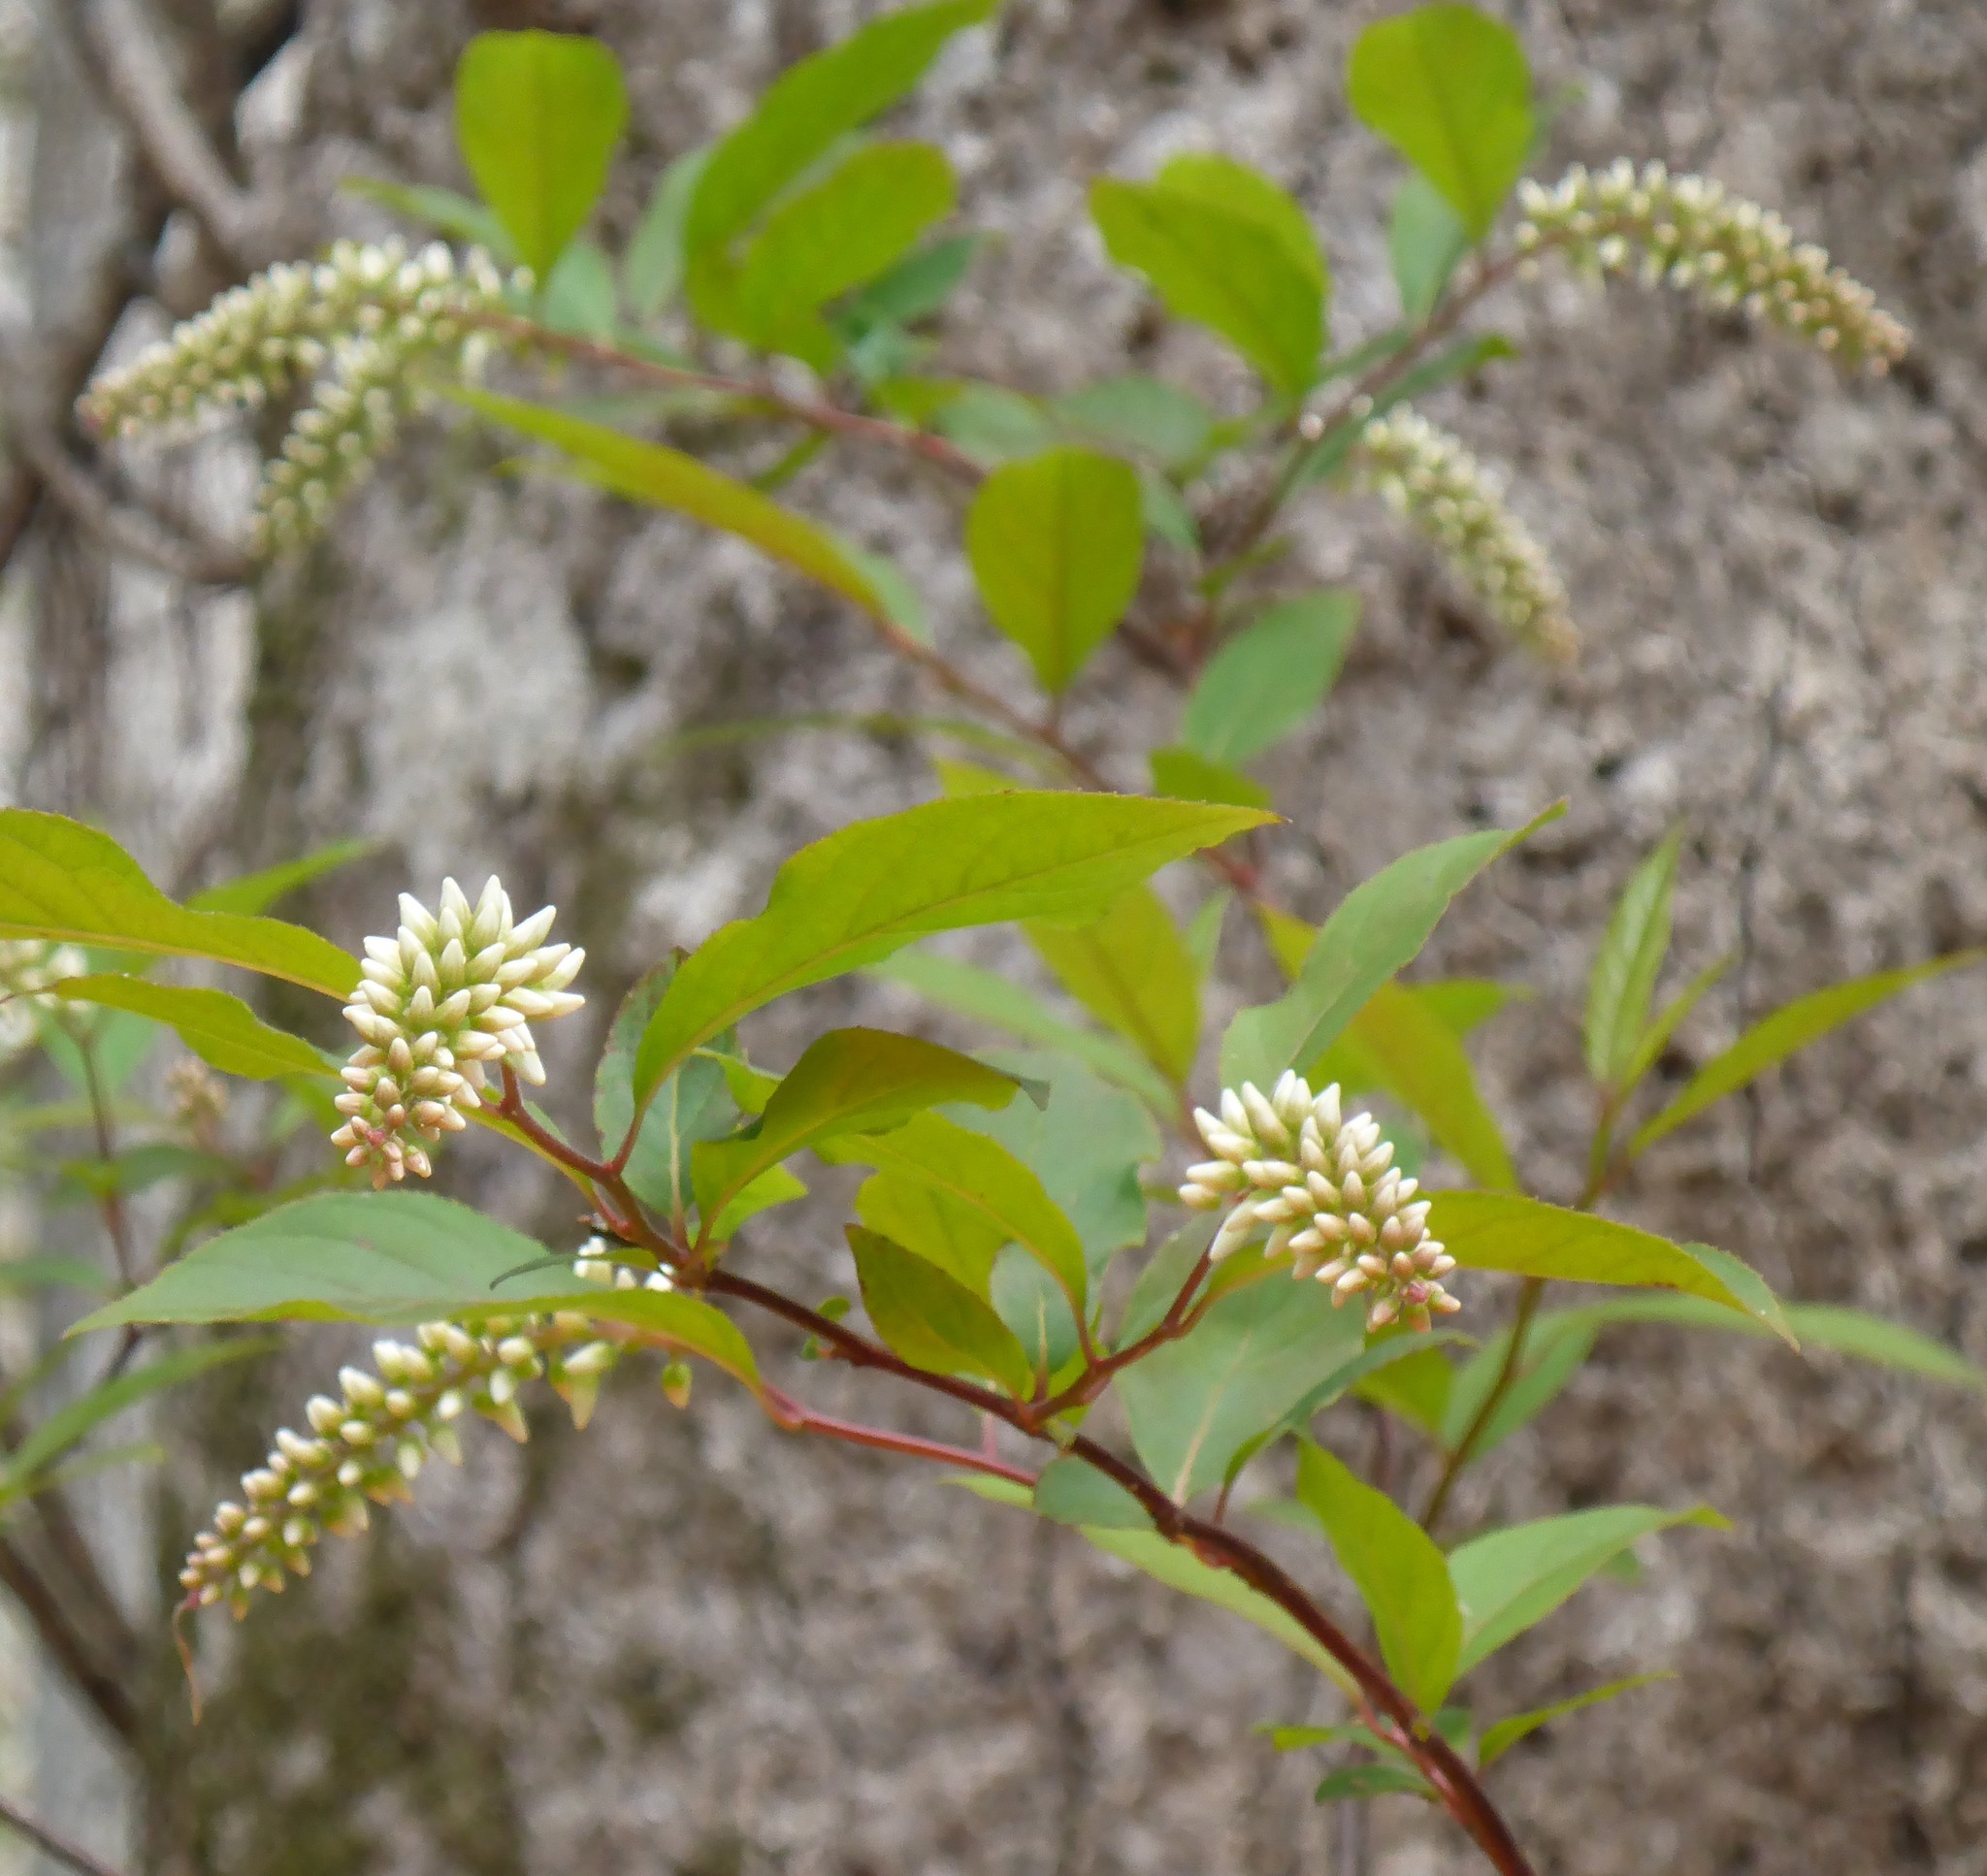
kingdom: Plantae
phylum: Tracheophyta
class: Magnoliopsida
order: Saxifragales
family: Iteaceae
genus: Itea
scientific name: Itea virginica
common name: Sweetspire
